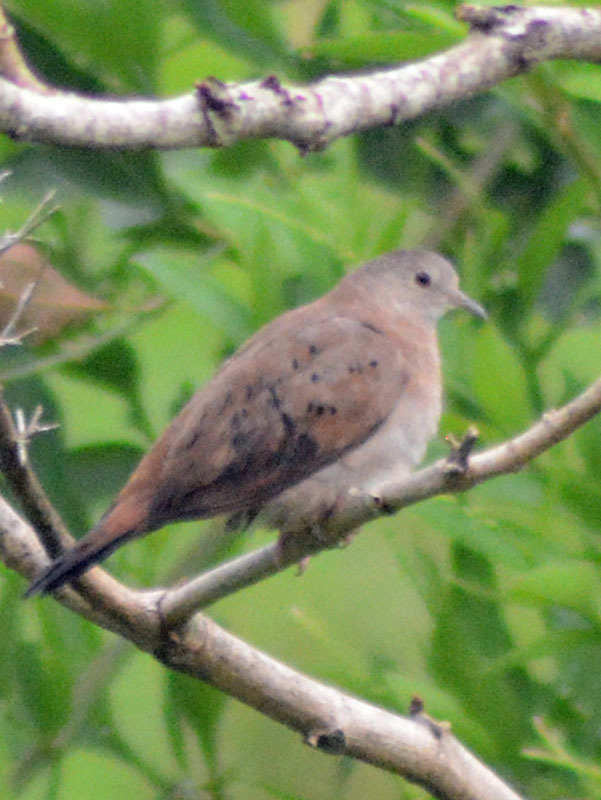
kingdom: Animalia
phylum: Chordata
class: Aves
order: Columbiformes
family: Columbidae
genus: Columbina
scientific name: Columbina talpacoti
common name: Ruddy ground dove
